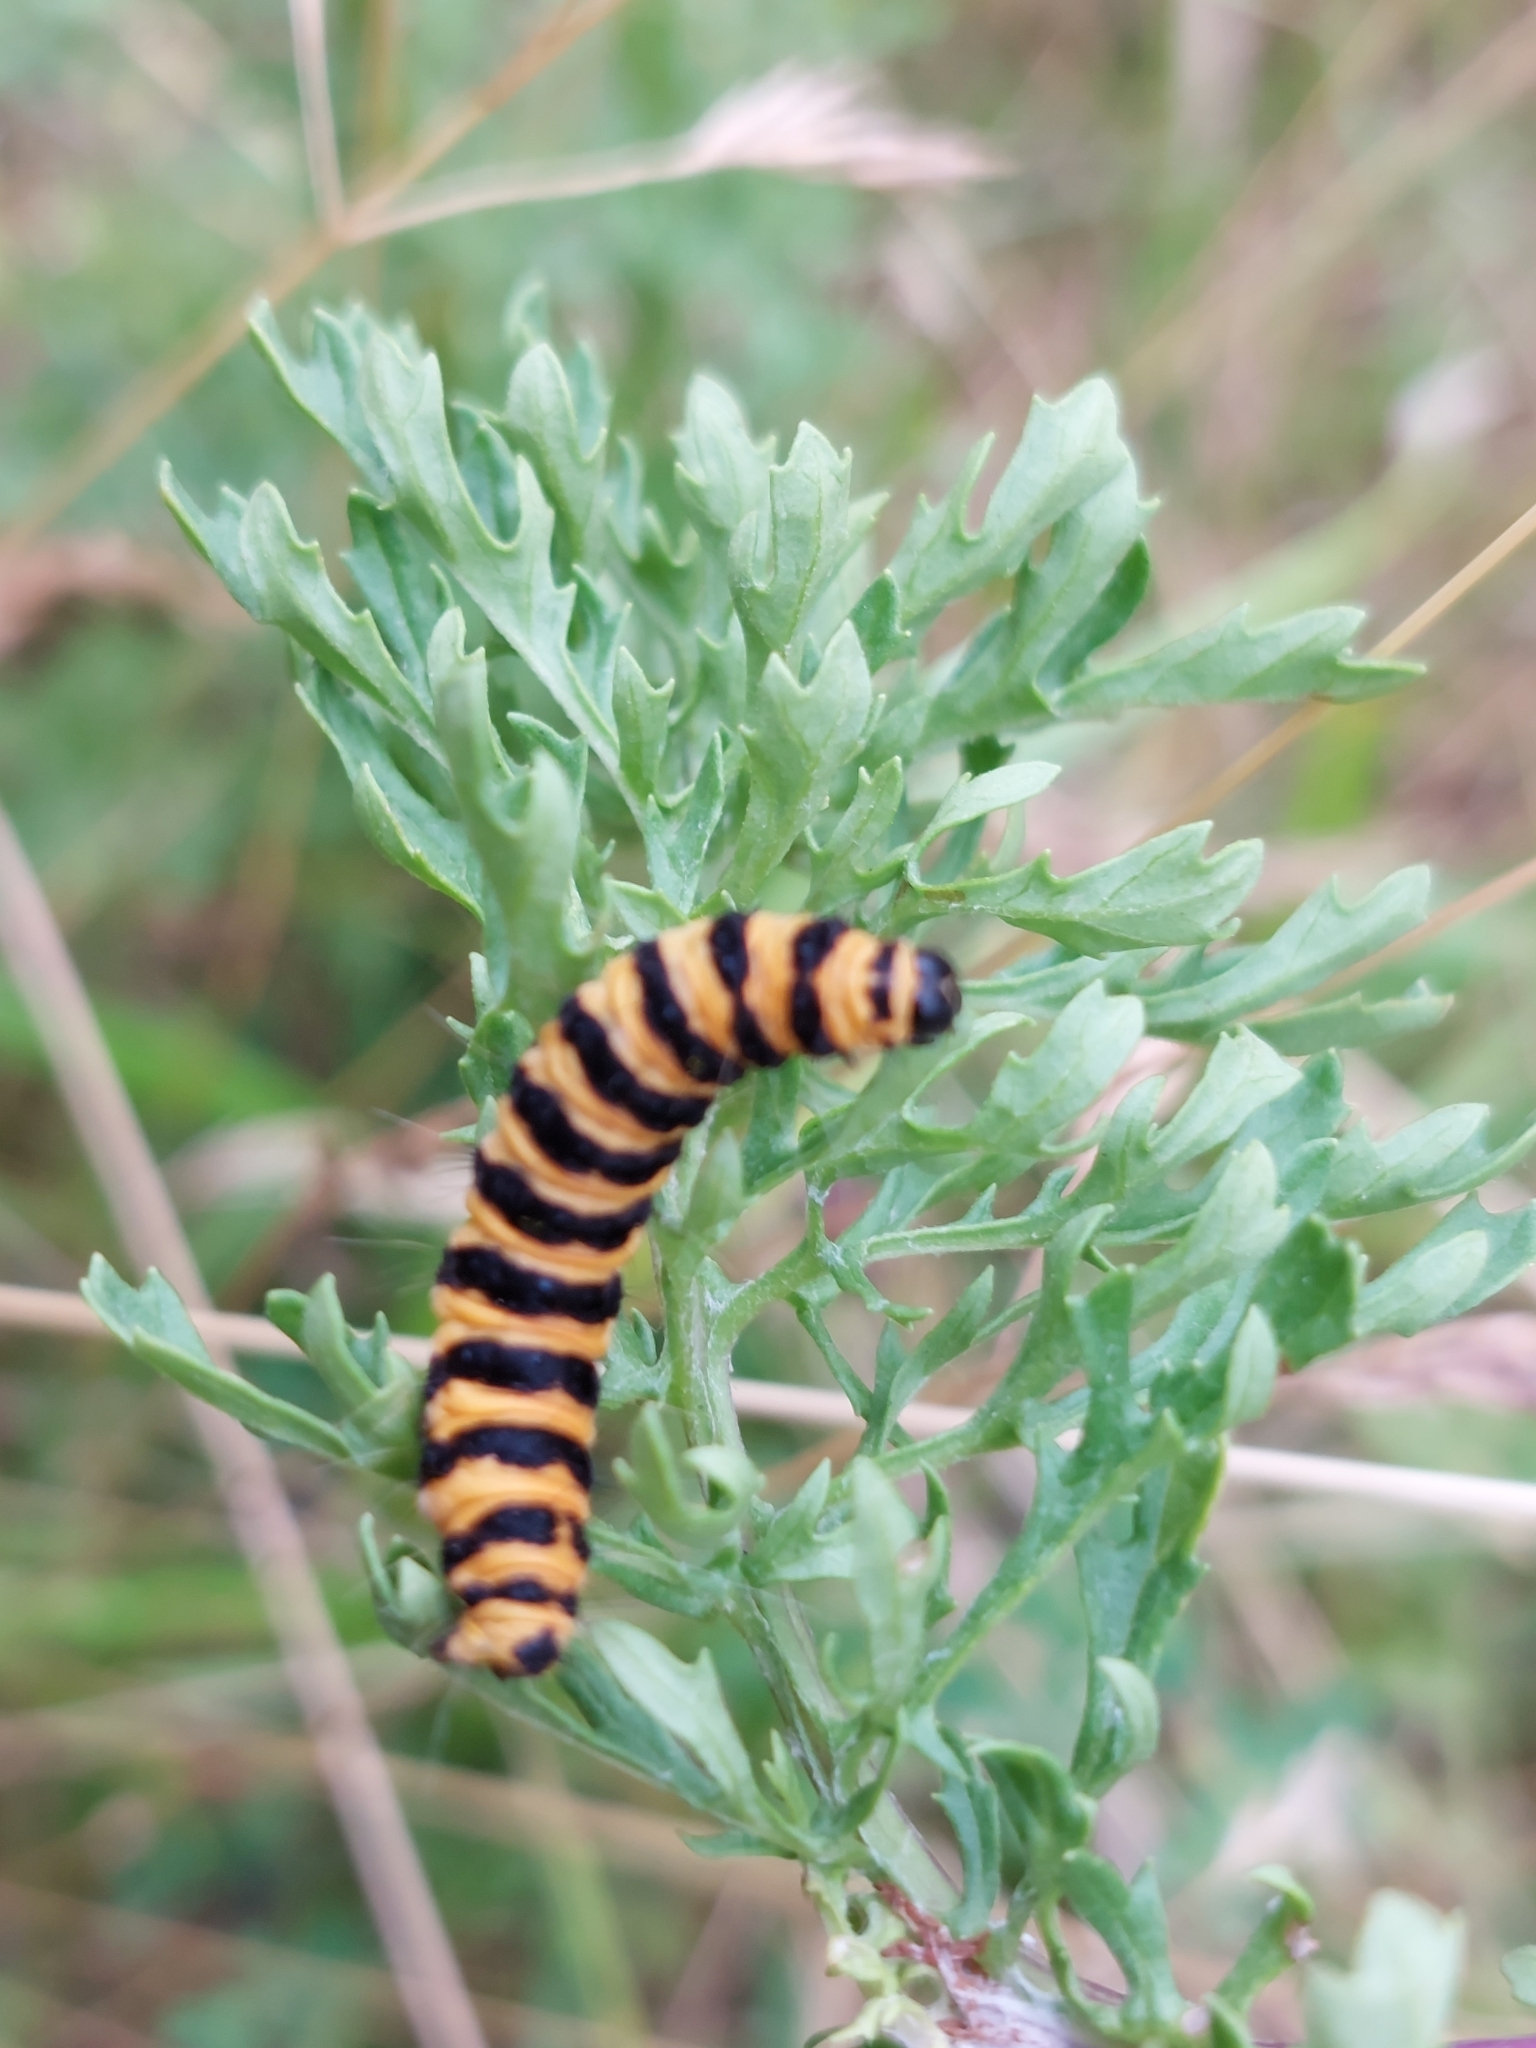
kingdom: Animalia
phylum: Arthropoda
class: Insecta
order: Lepidoptera
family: Erebidae
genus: Tyria
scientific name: Tyria jacobaeae
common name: Cinnabar
